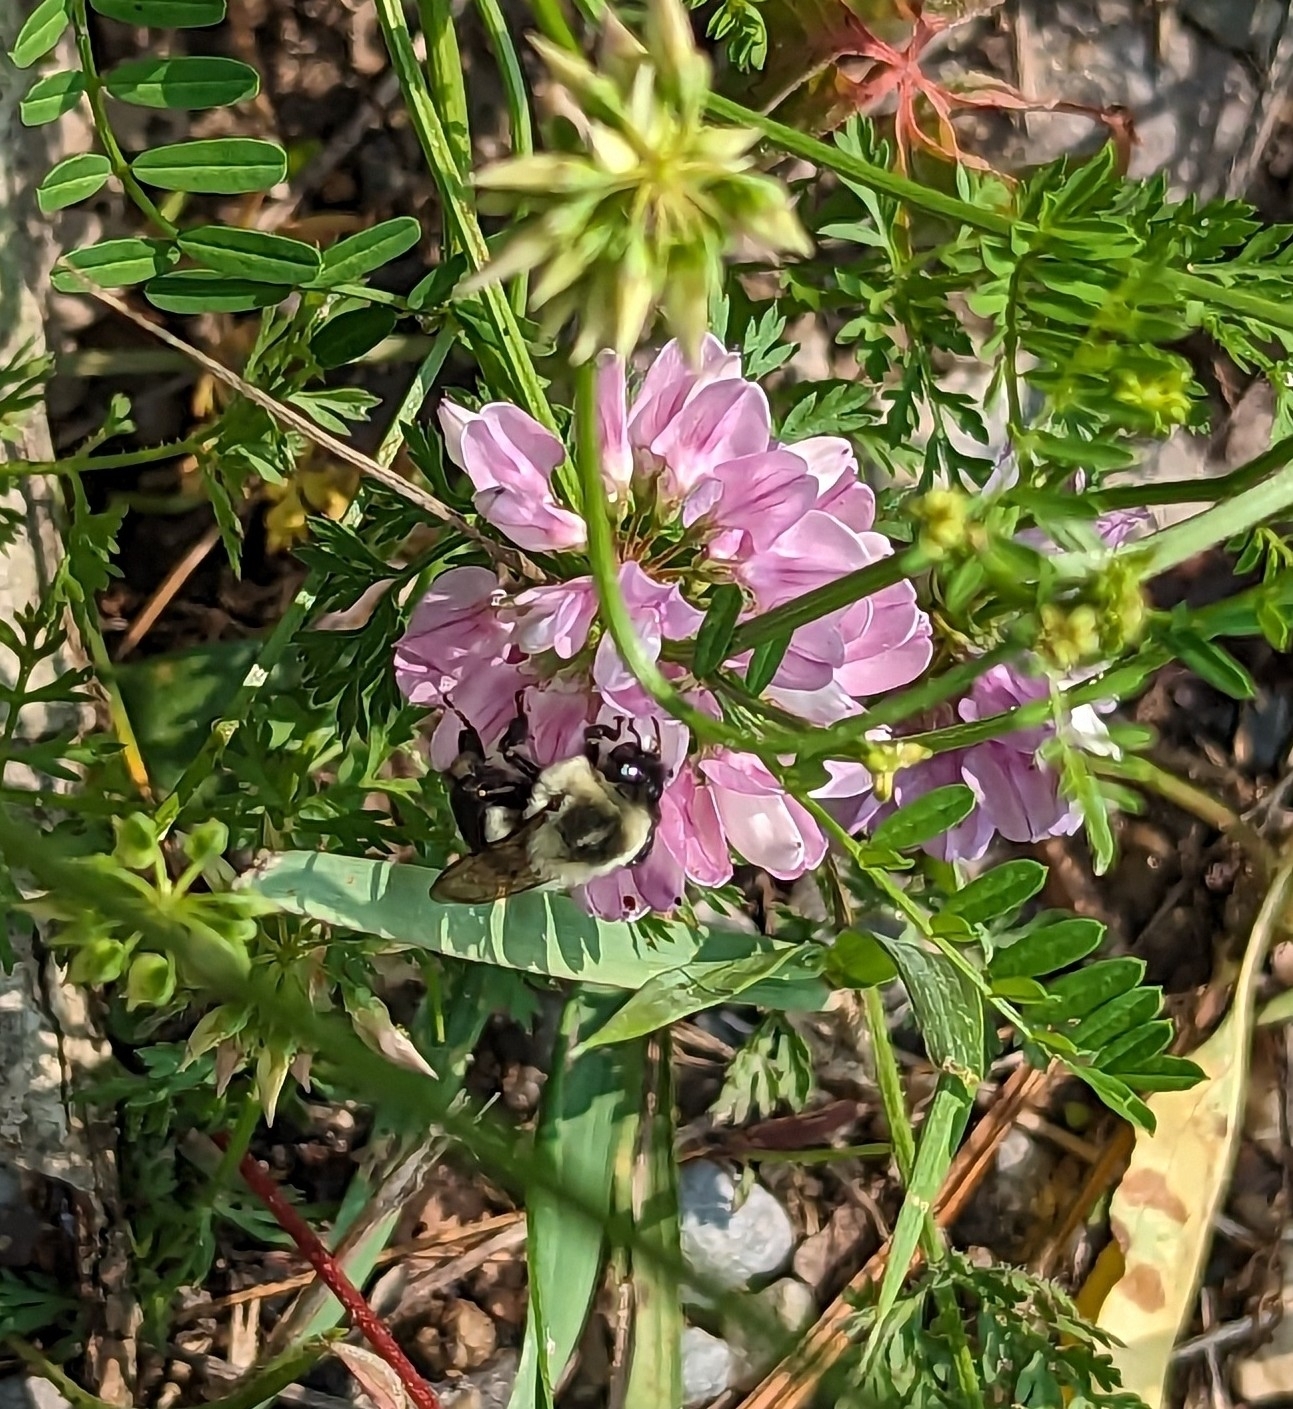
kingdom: Animalia
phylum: Arthropoda
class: Insecta
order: Hymenoptera
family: Apidae
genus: Bombus
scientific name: Bombus impatiens
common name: Common eastern bumble bee
